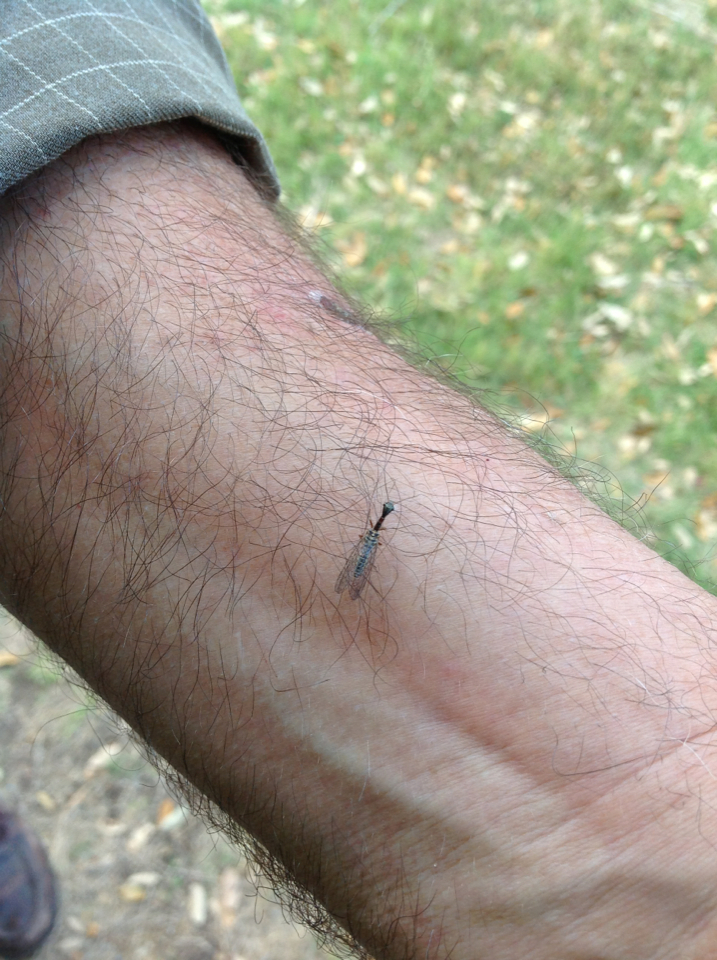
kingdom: Animalia
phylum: Arthropoda
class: Insecta
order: Raphidioptera
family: Raphidiidae
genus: Agulla
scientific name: Agulla bicolor
